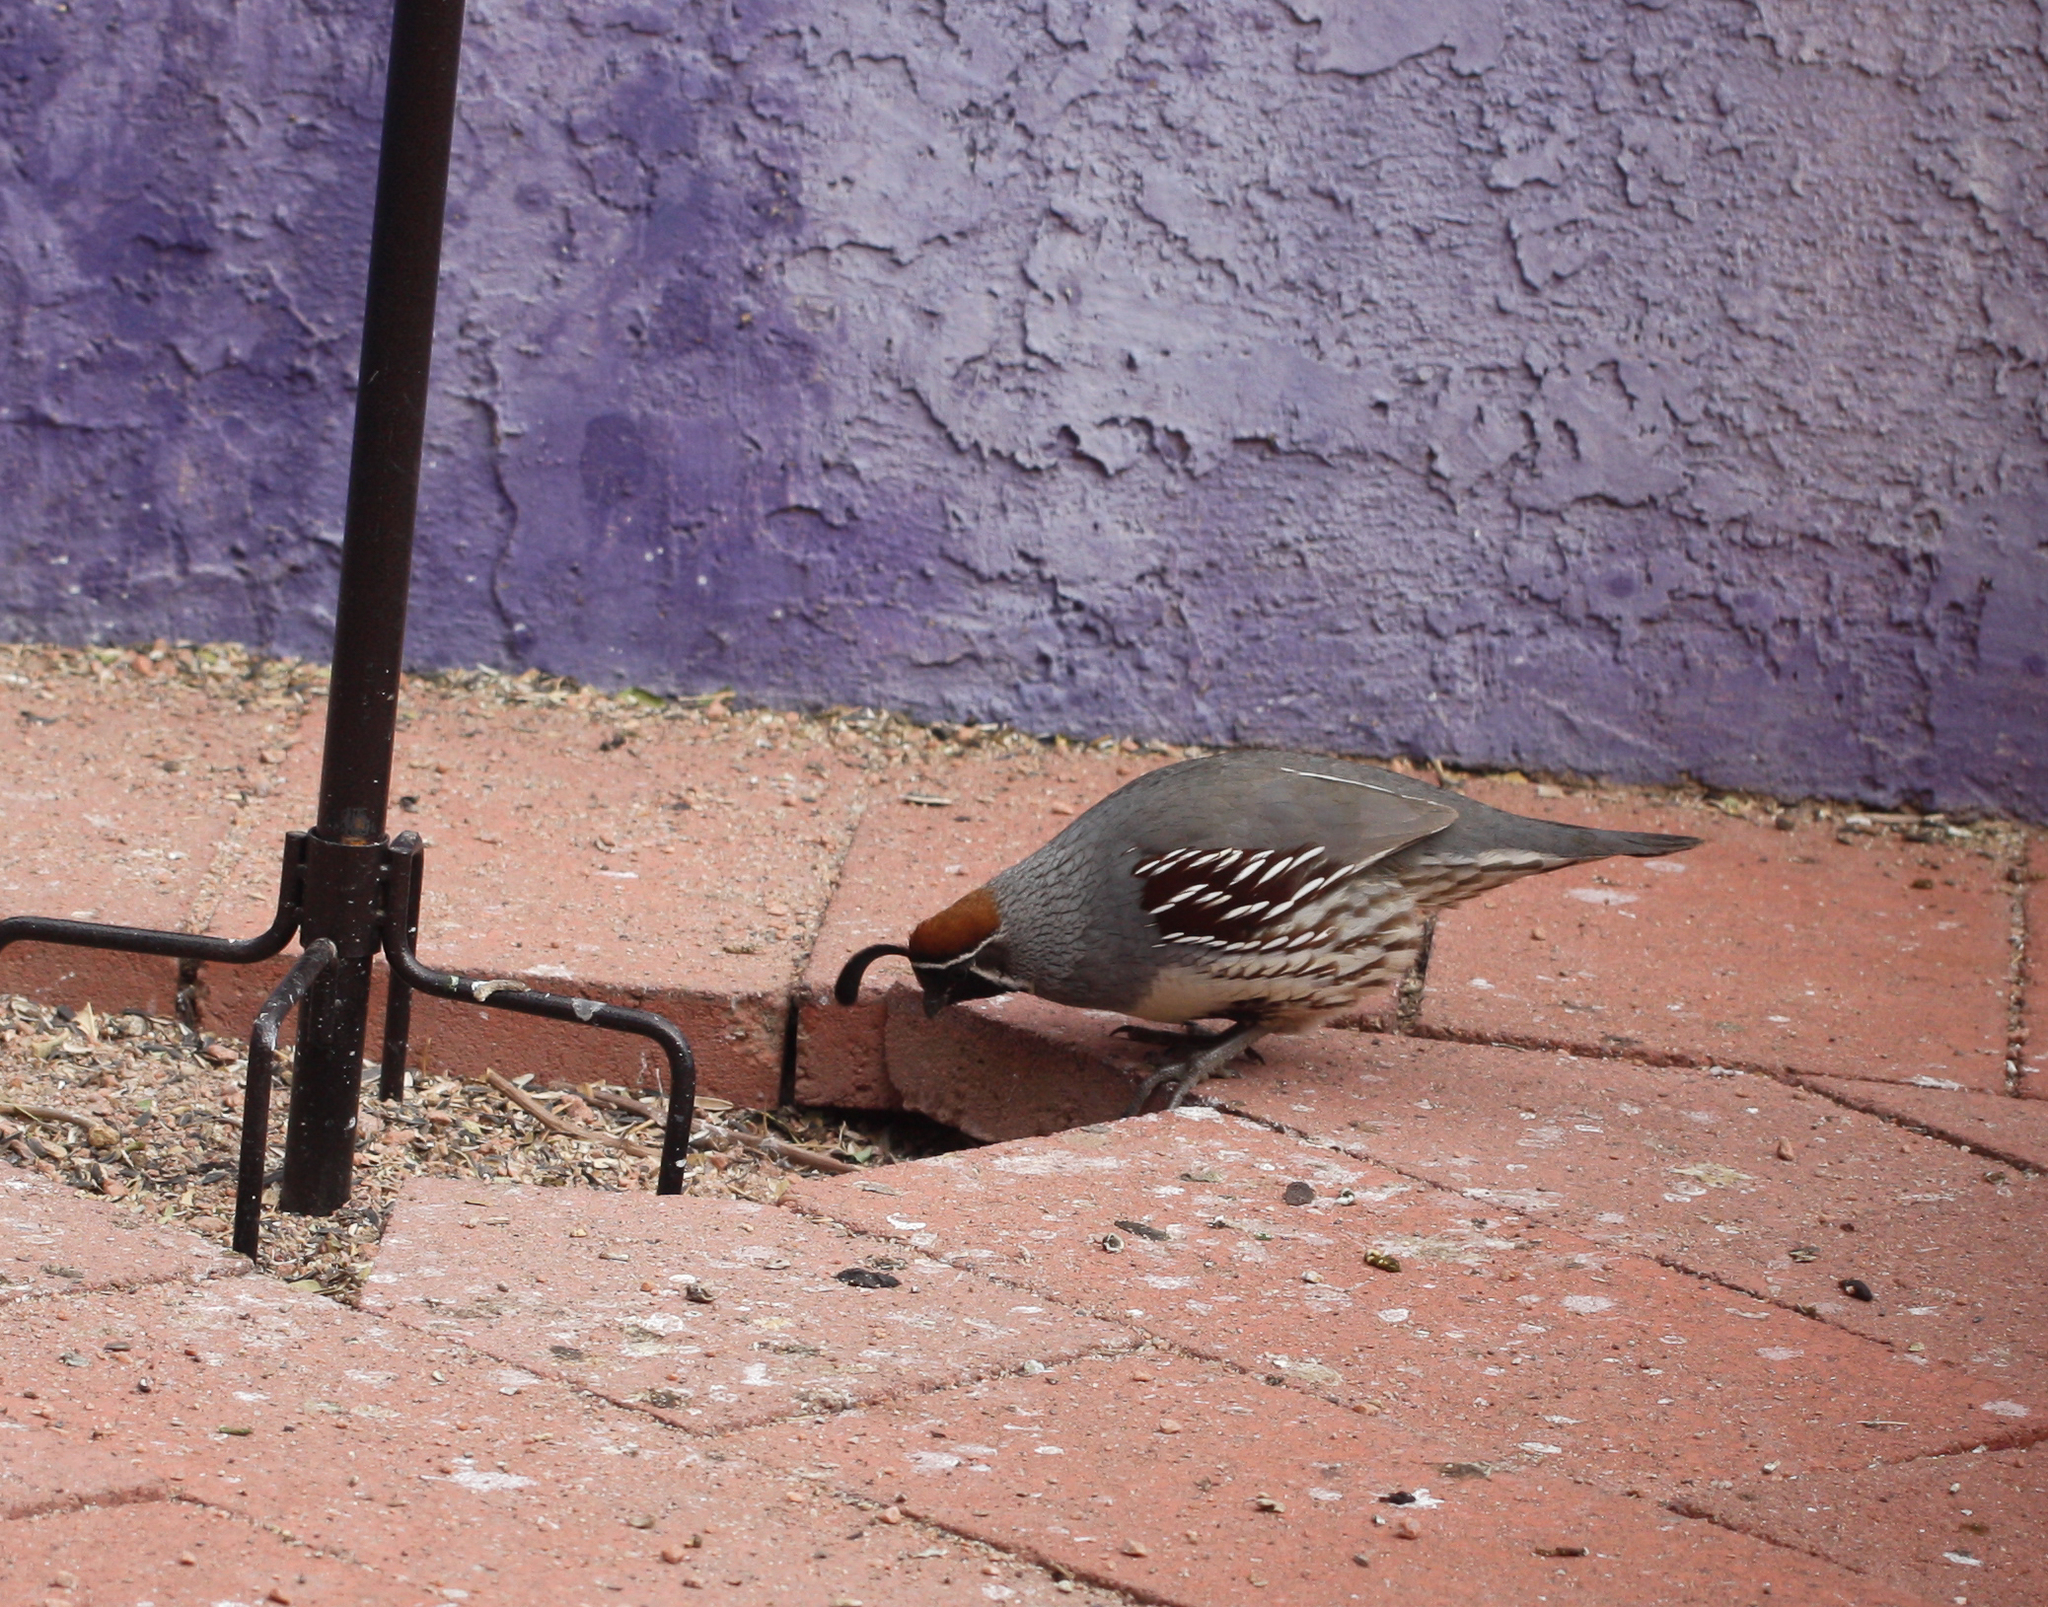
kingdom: Animalia
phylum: Chordata
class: Aves
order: Galliformes
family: Odontophoridae
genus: Callipepla
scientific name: Callipepla gambelii
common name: Gambel's quail
